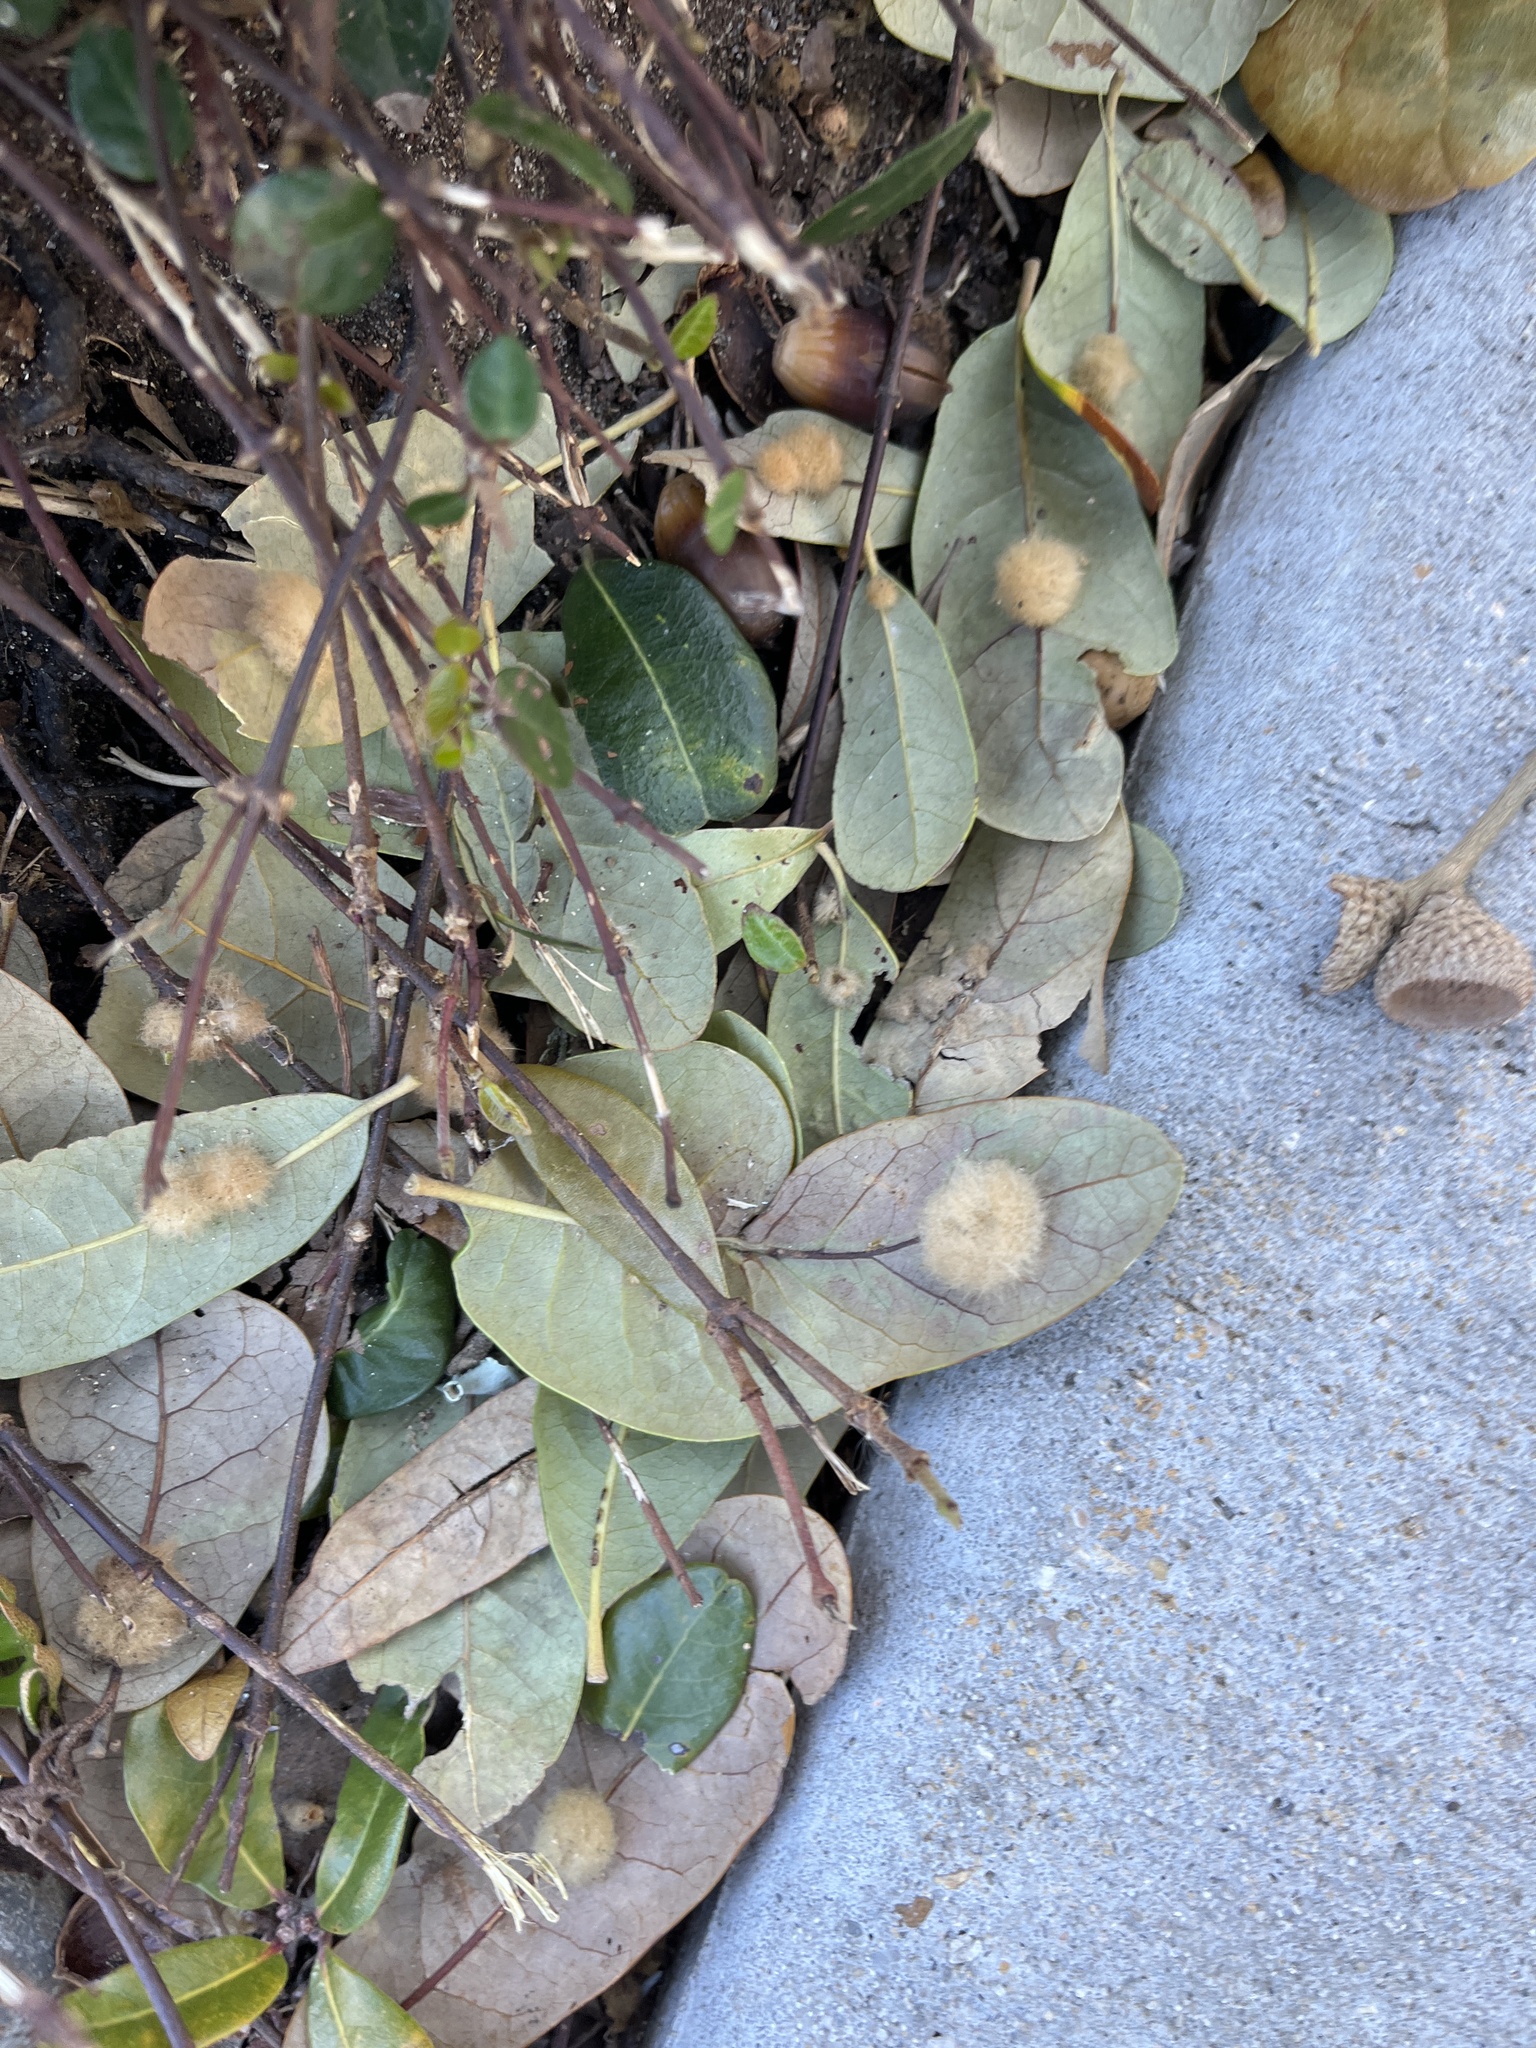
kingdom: Animalia
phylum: Arthropoda
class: Insecta
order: Hymenoptera
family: Cynipidae
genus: Andricus
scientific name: Andricus Druon quercuslanigerum
